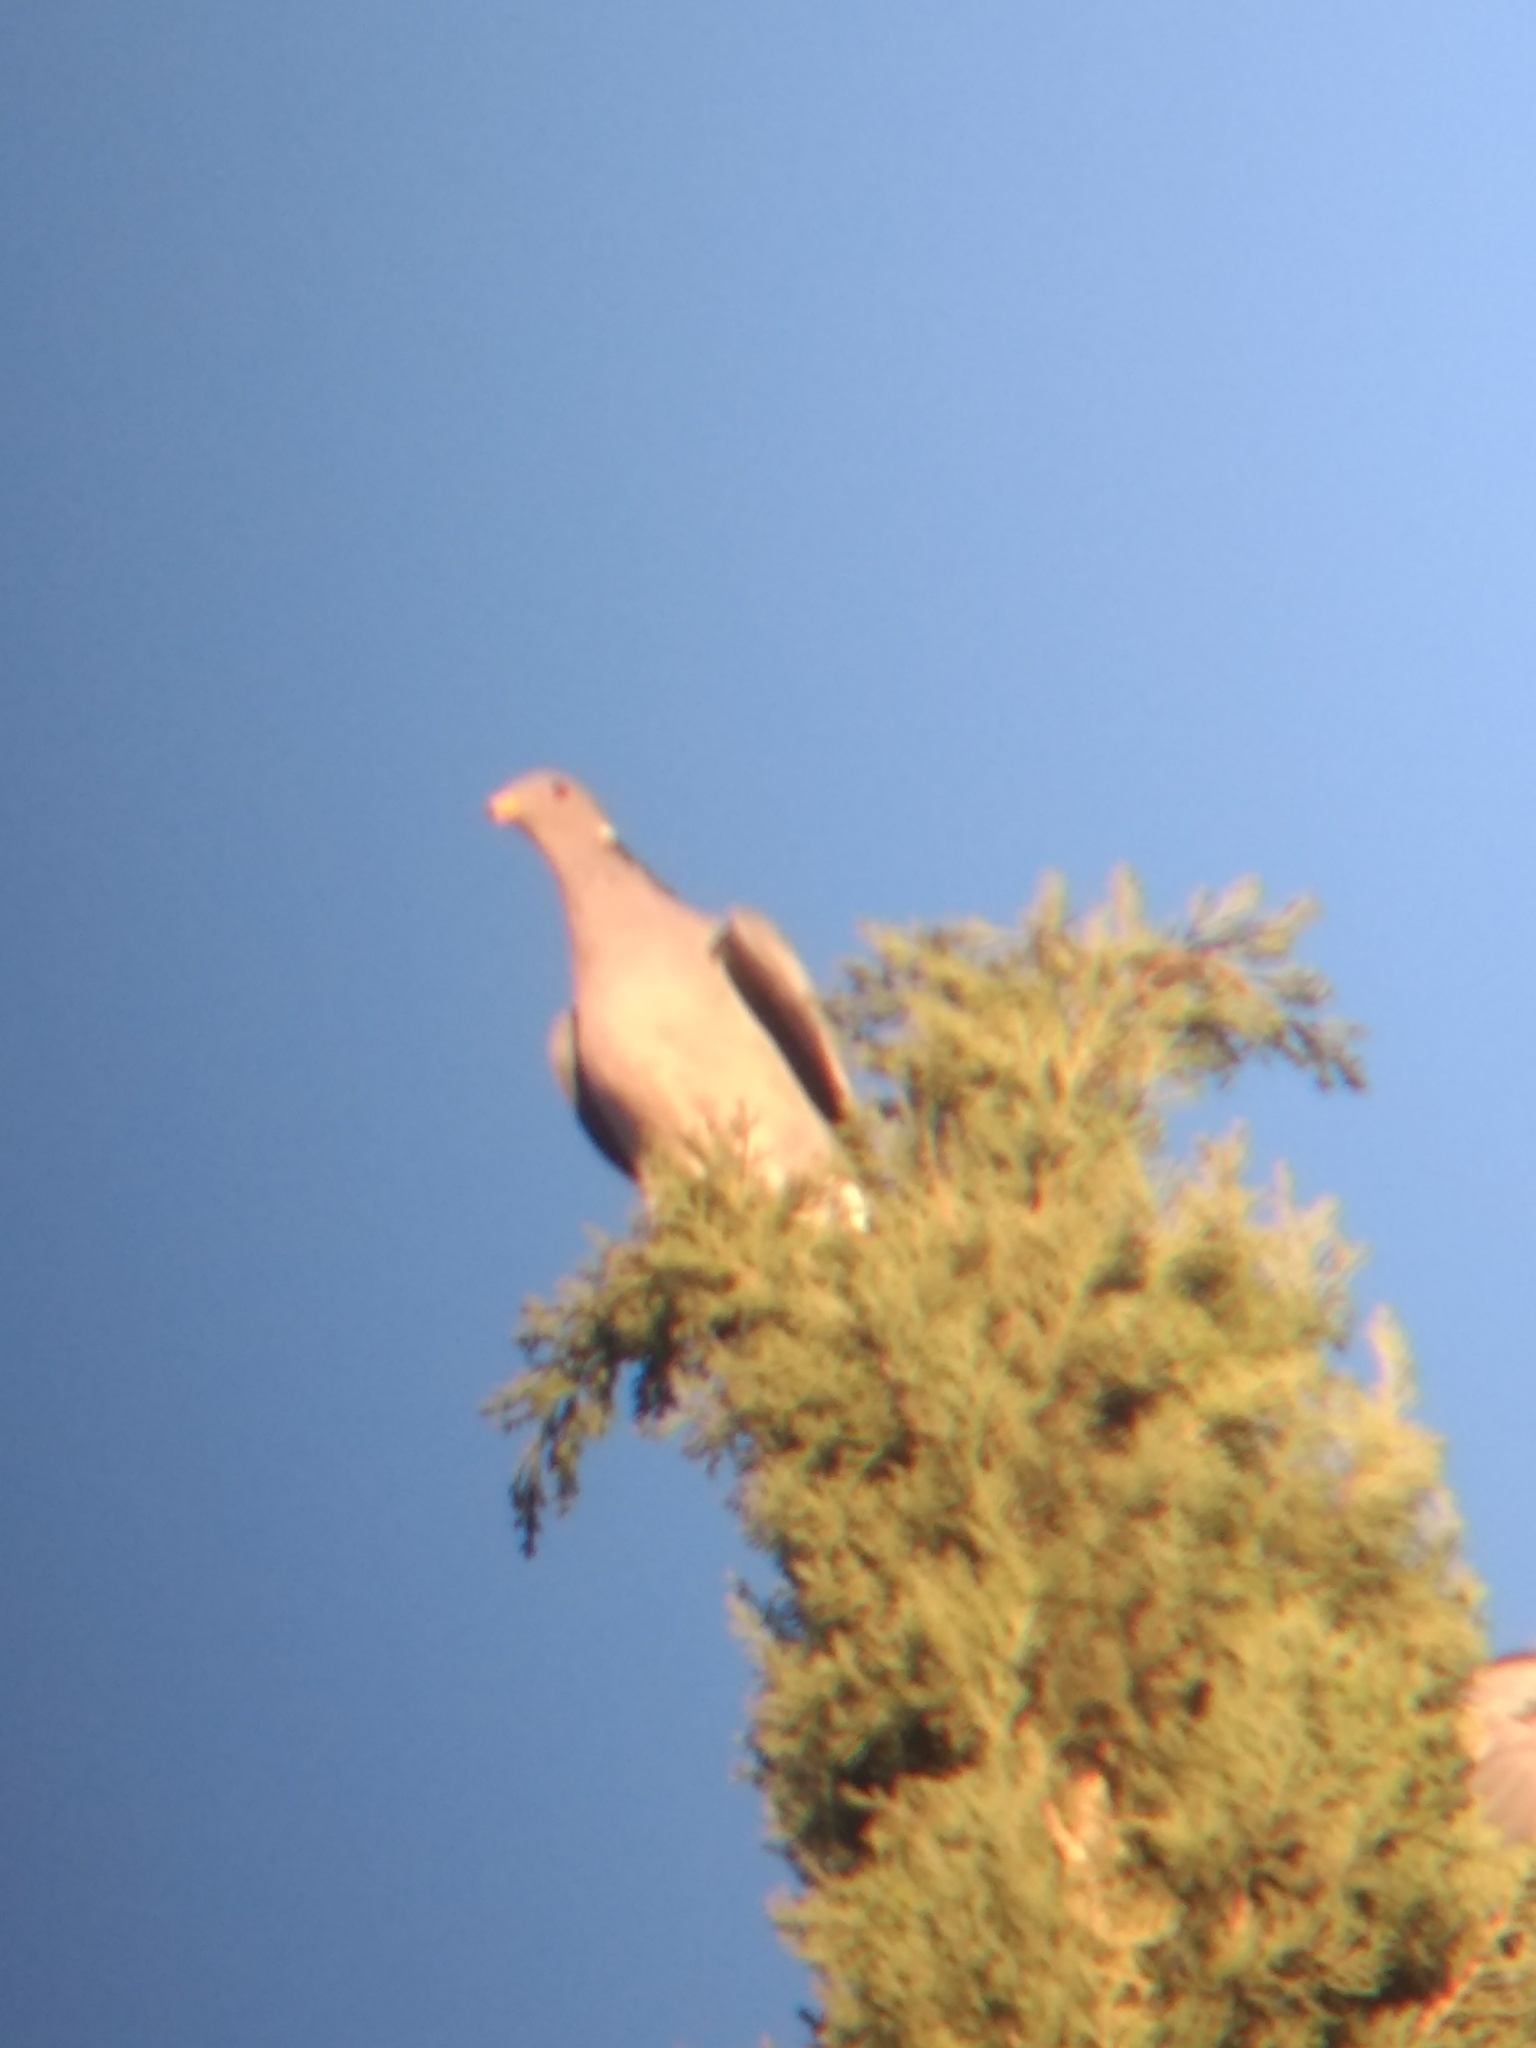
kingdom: Animalia
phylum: Chordata
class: Aves
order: Columbiformes
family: Columbidae
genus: Patagioenas
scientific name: Patagioenas fasciata
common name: Band-tailed pigeon
